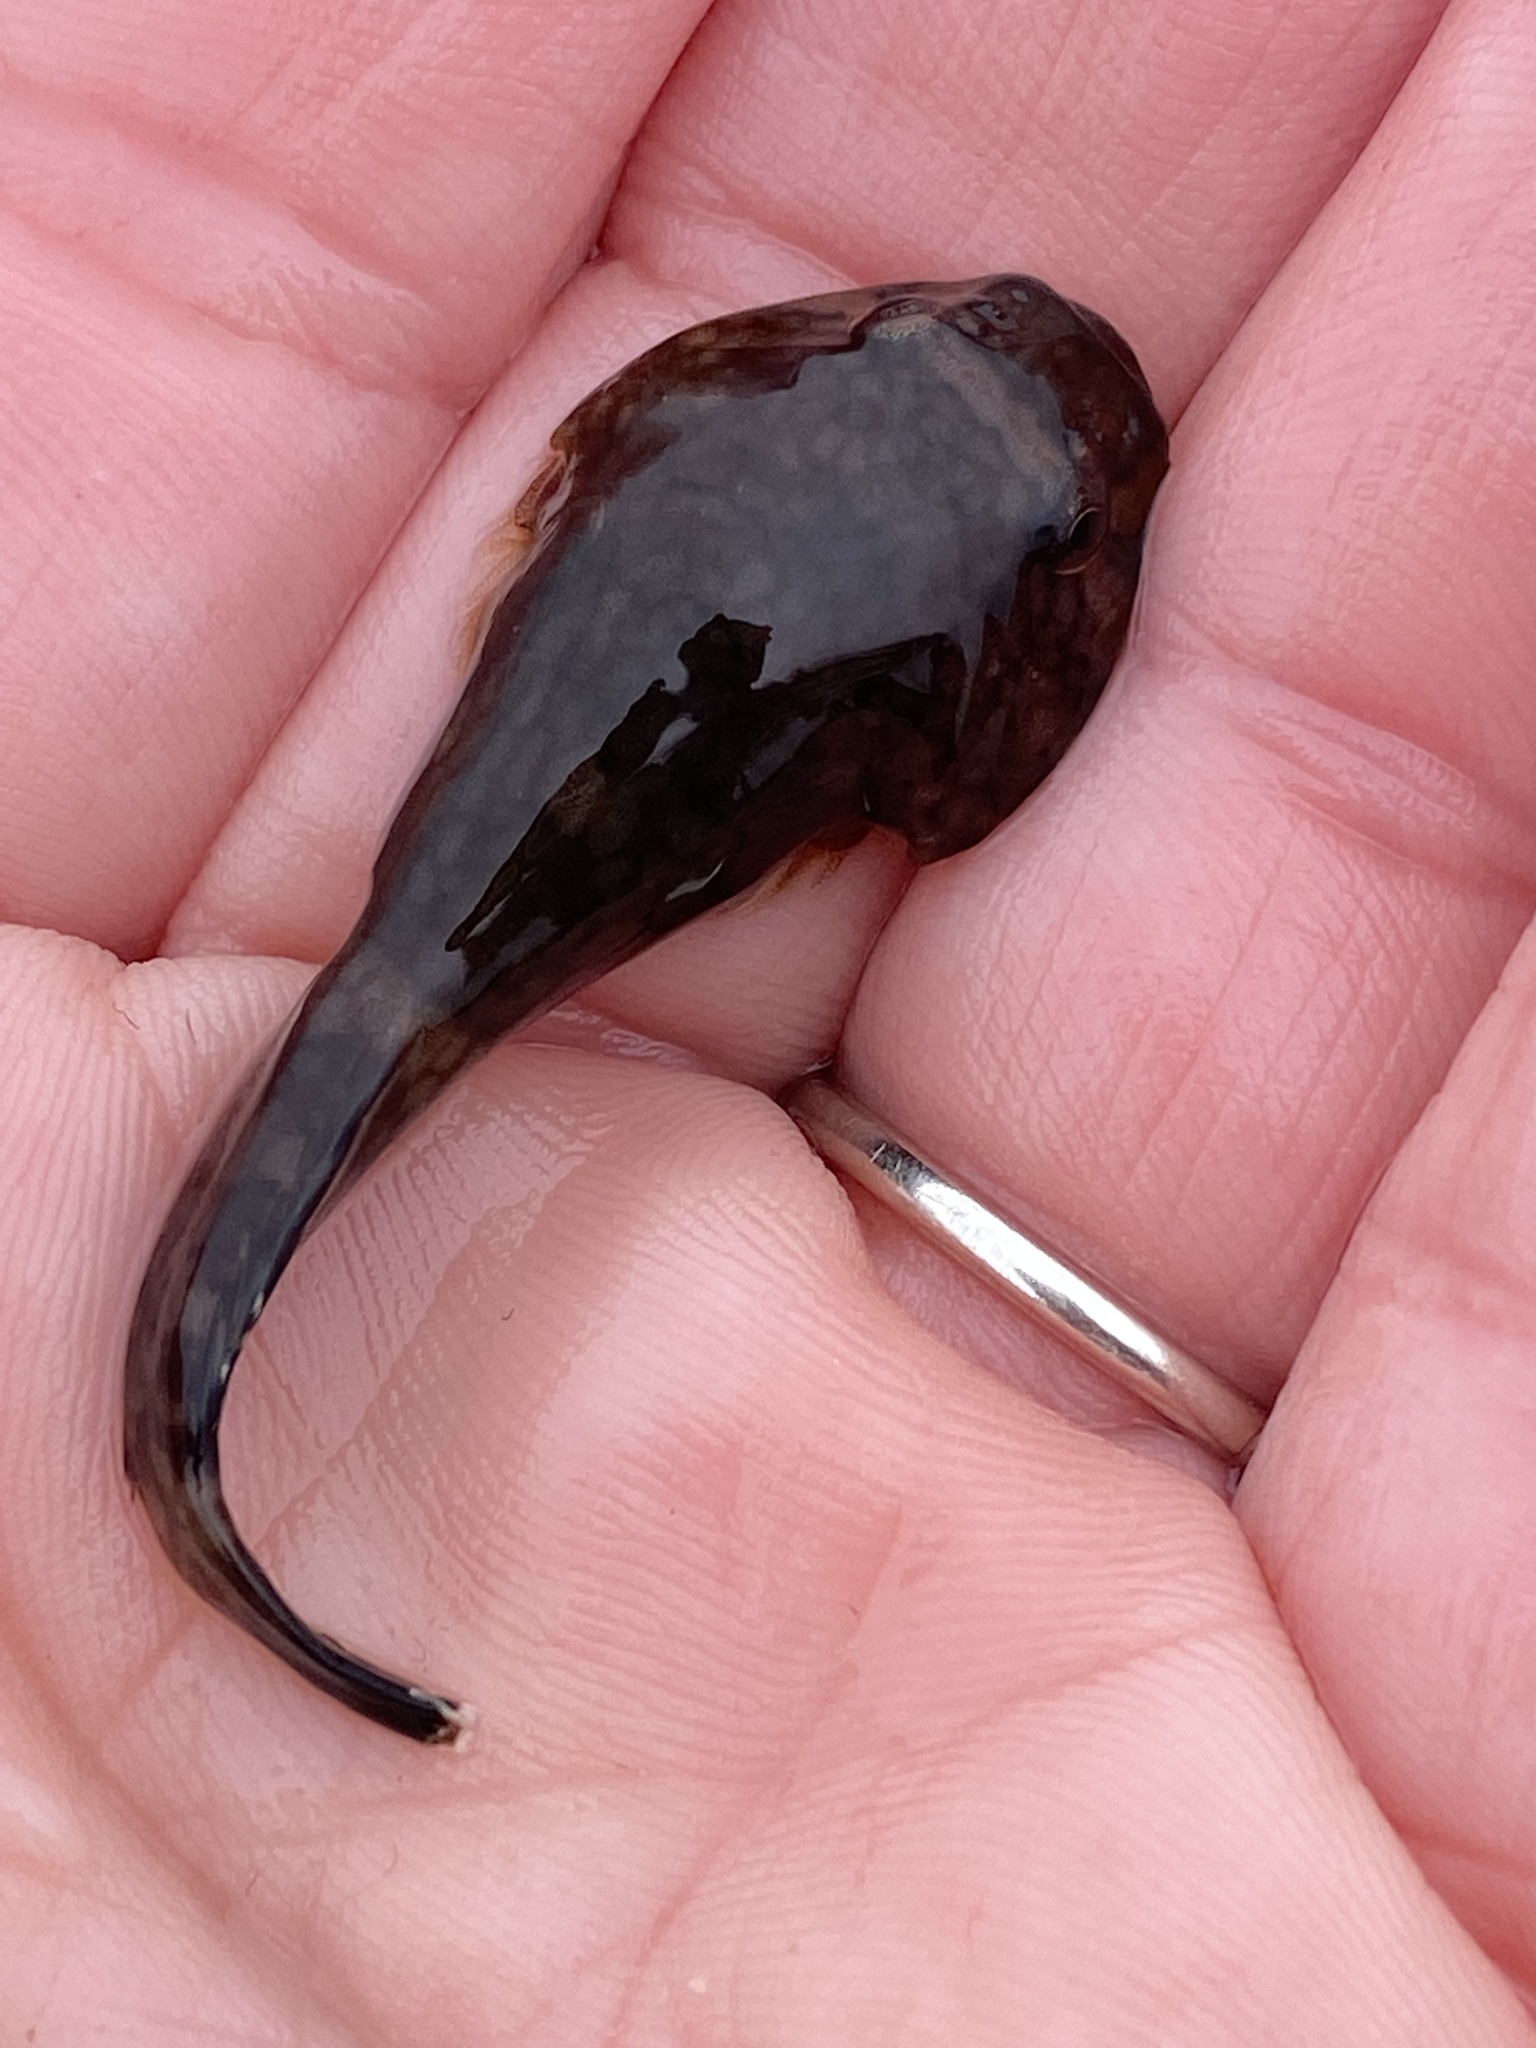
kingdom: Animalia
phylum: Chordata
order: Gobiesociformes
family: Gobiesocidae
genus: Gobiesox
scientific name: Gobiesox maeandricus
